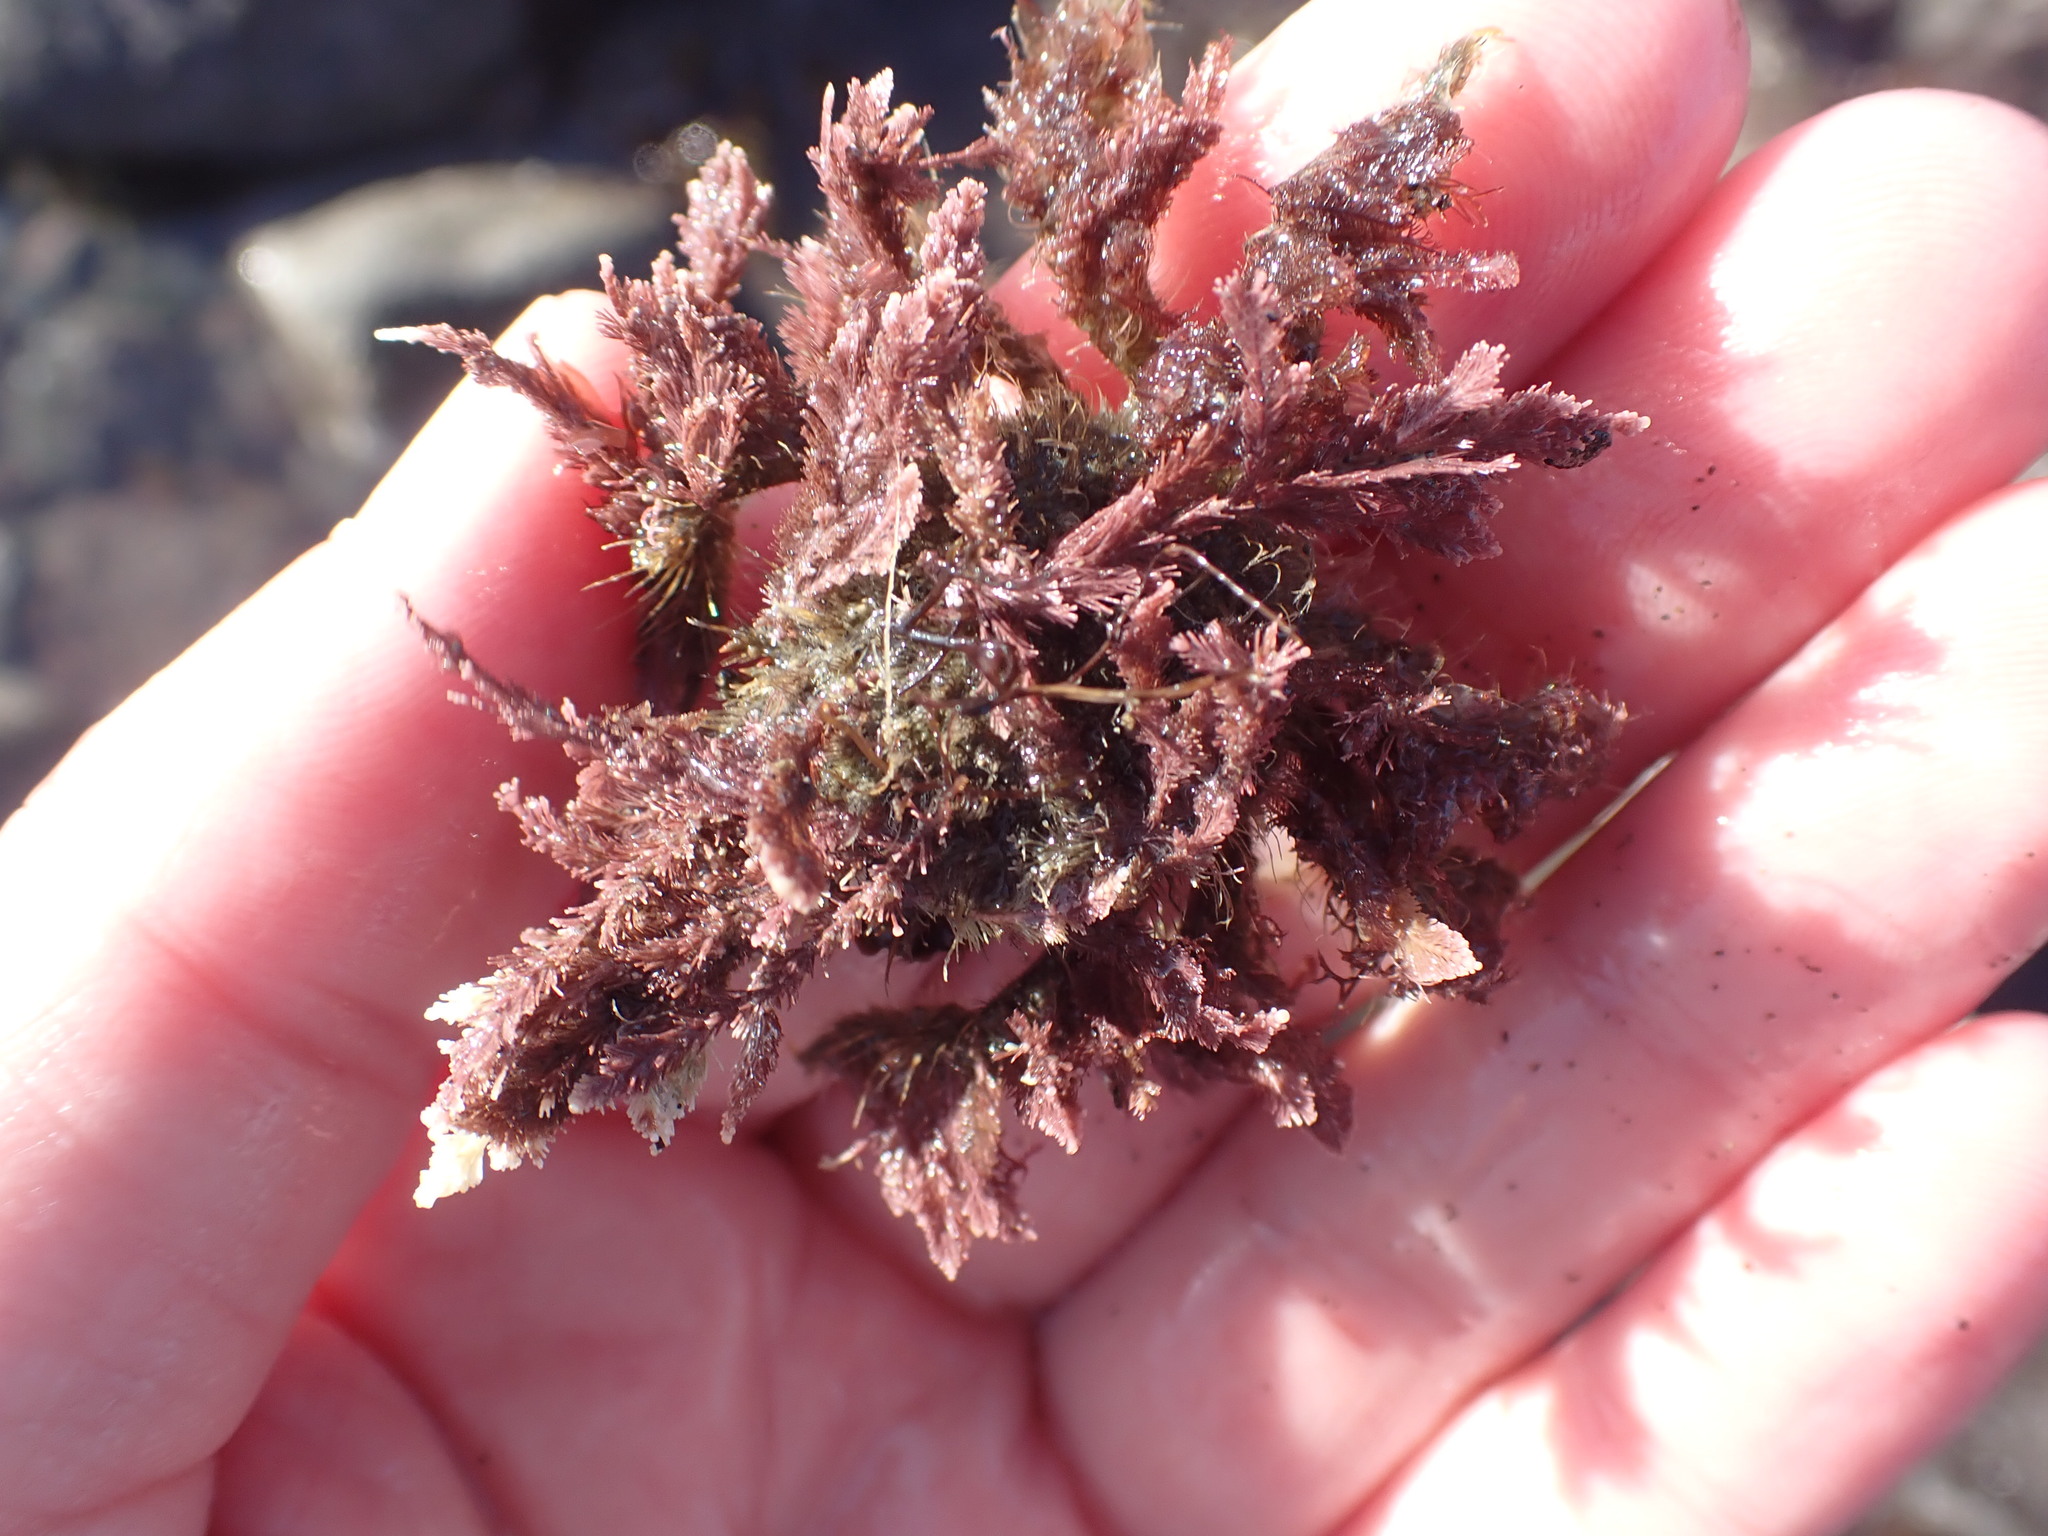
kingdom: Animalia
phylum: Arthropoda
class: Malacostraca
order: Decapoda
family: Majidae
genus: Notomithrax
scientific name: Notomithrax ursus
